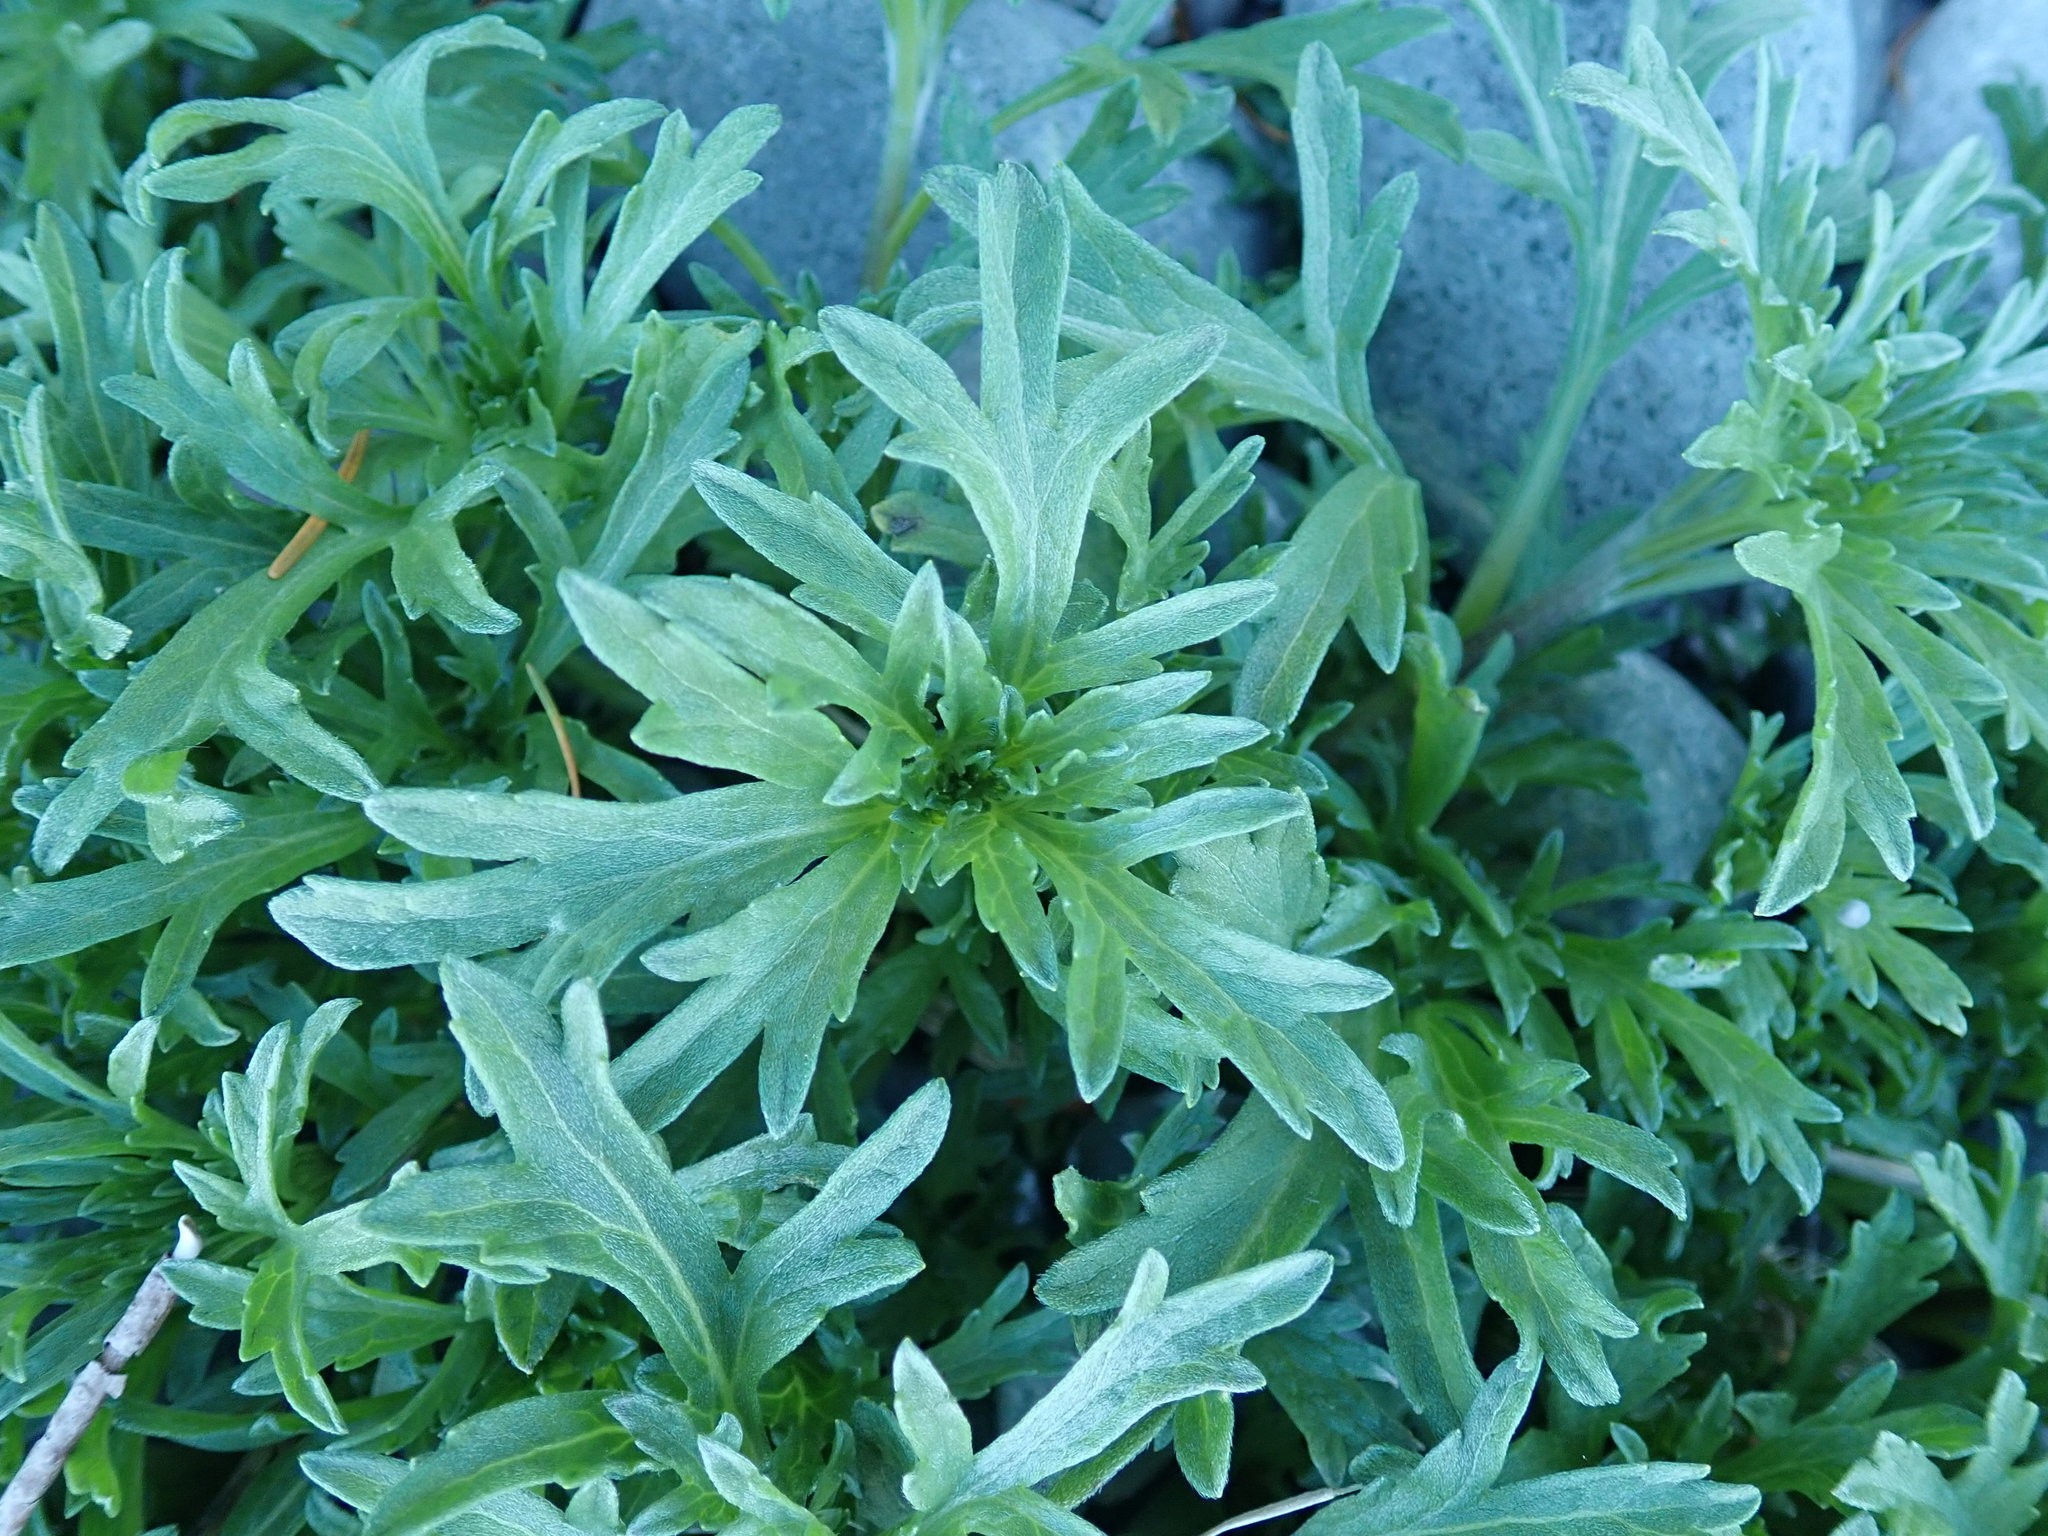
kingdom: Plantae
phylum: Tracheophyta
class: Magnoliopsida
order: Asterales
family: Asteraceae
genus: Ambrosia
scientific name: Ambrosia chamissonis
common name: Beachbur
